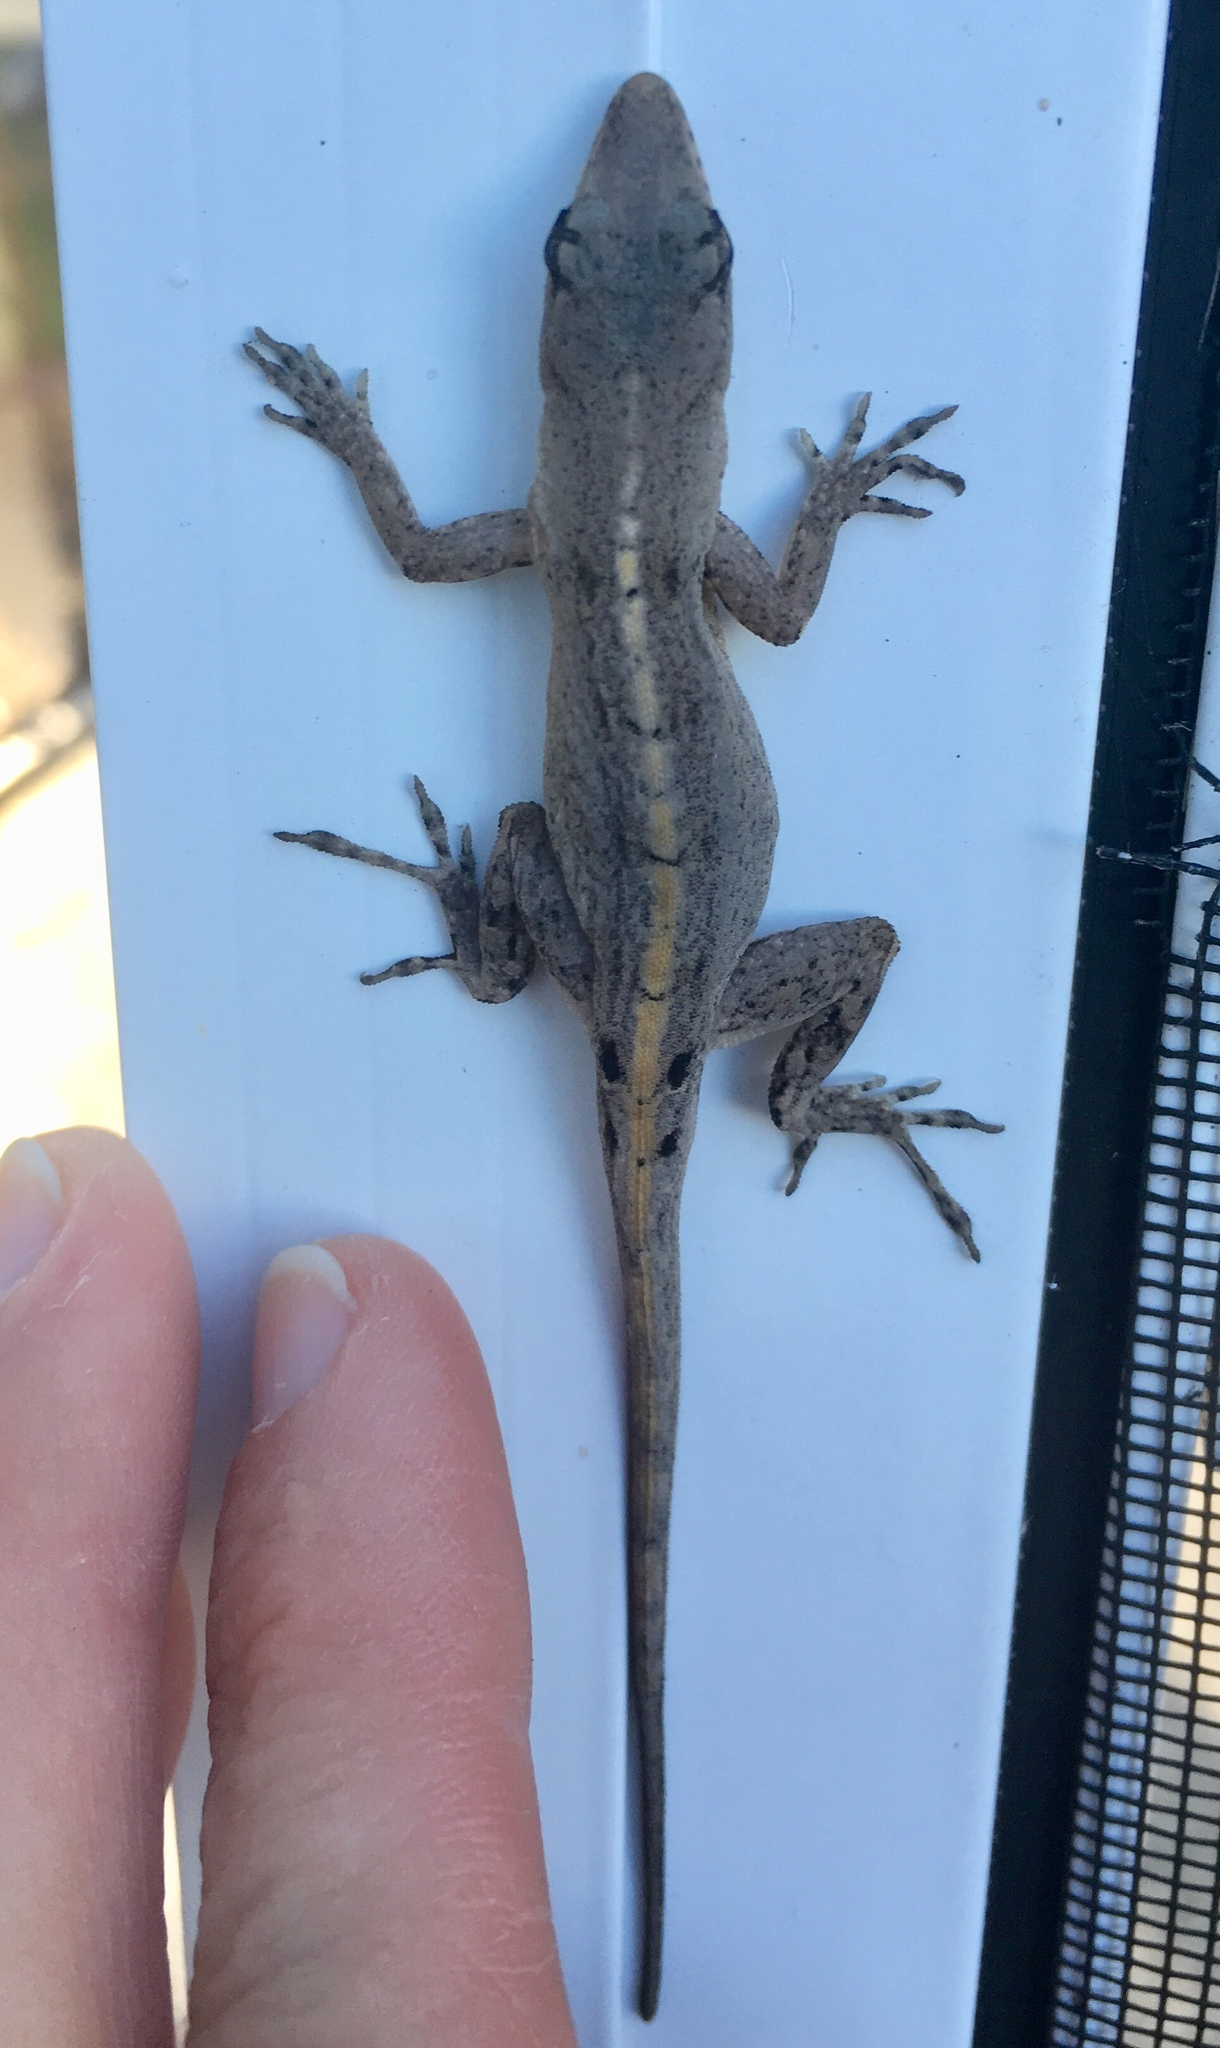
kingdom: Animalia
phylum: Chordata
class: Squamata
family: Dactyloidae
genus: Anolis
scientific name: Anolis sagrei
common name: Brown anole
